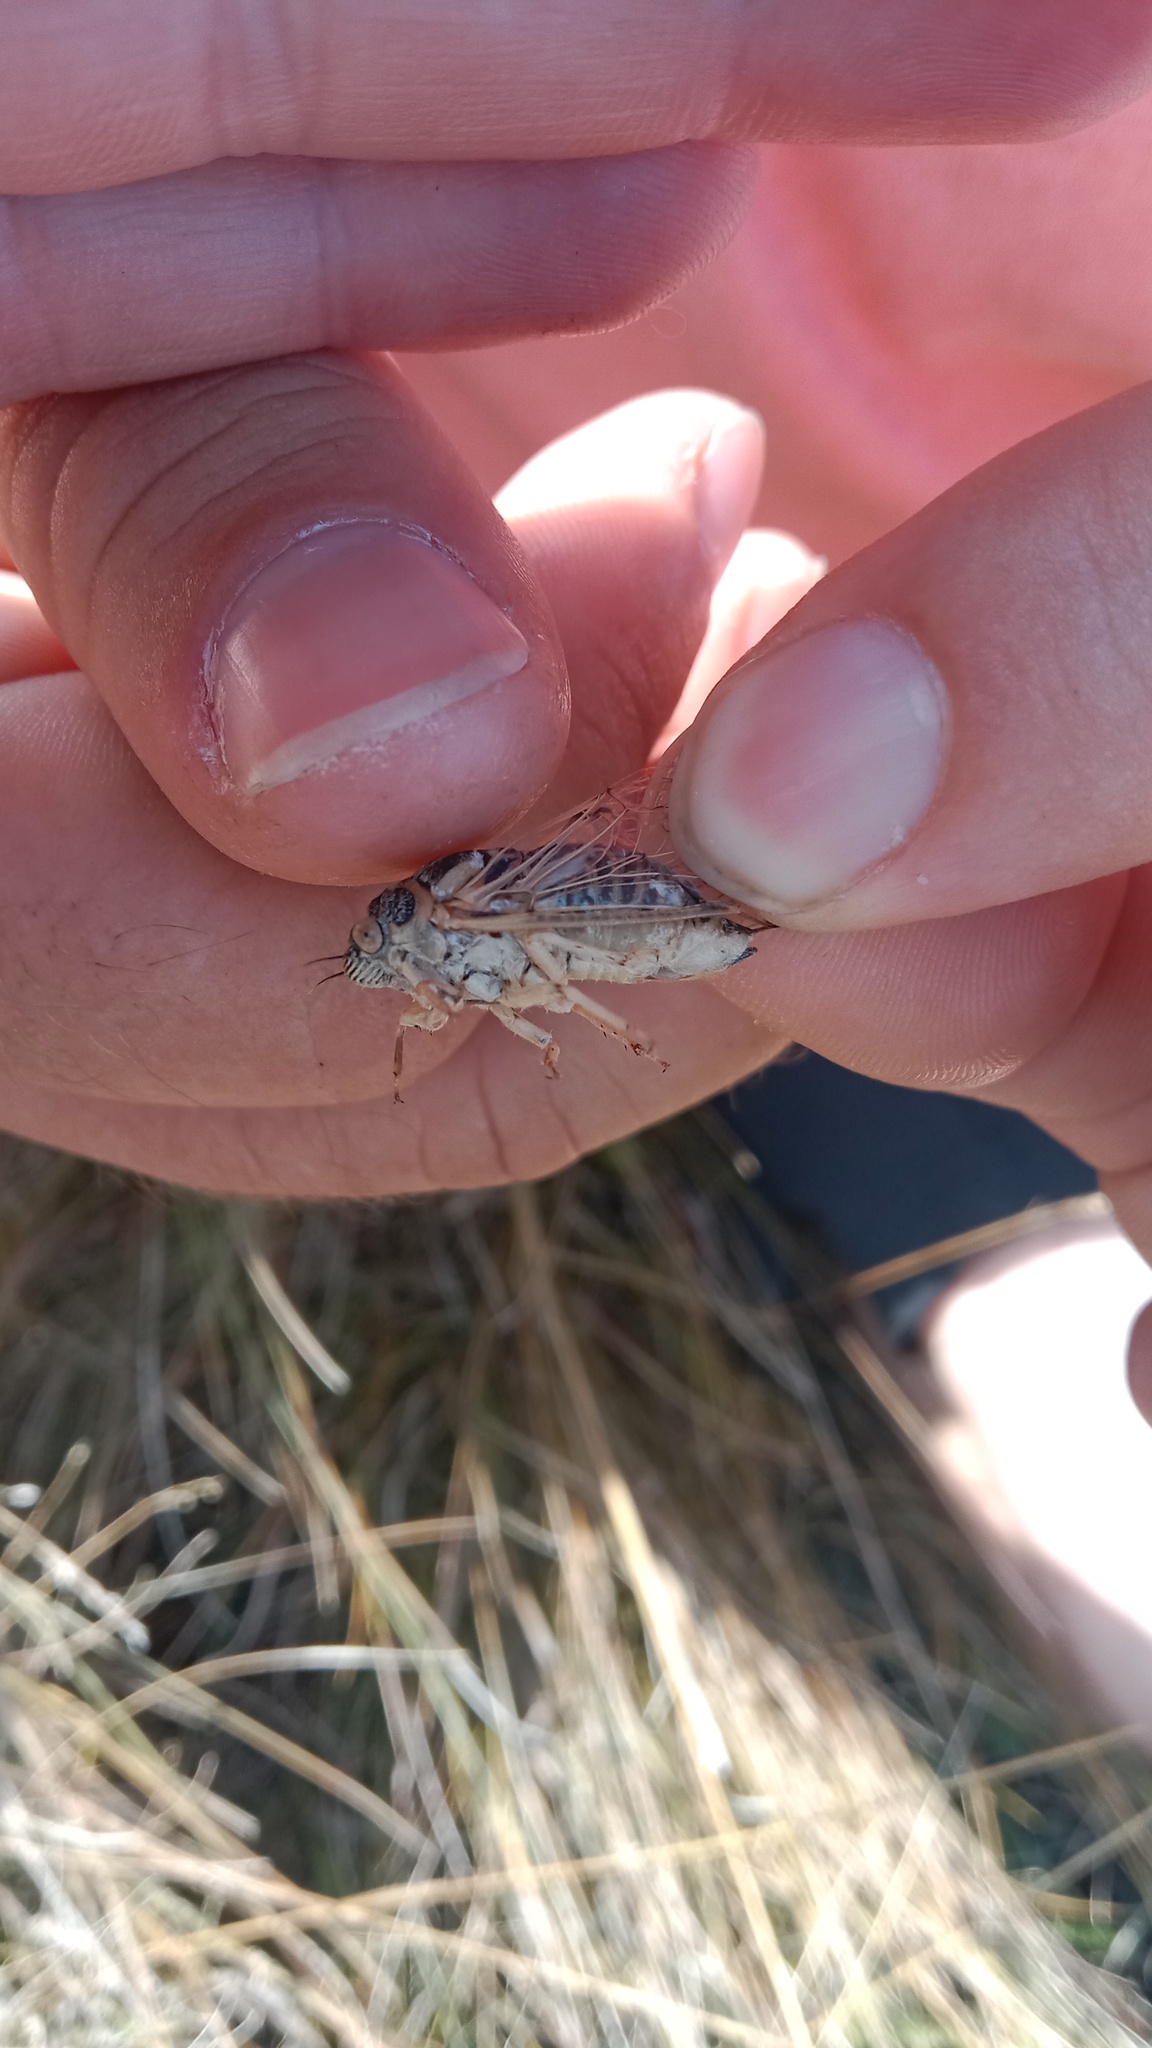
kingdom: Animalia
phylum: Arthropoda
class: Insecta
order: Hemiptera
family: Cicadidae
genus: Cicadatra
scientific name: Cicadatra platyptera
